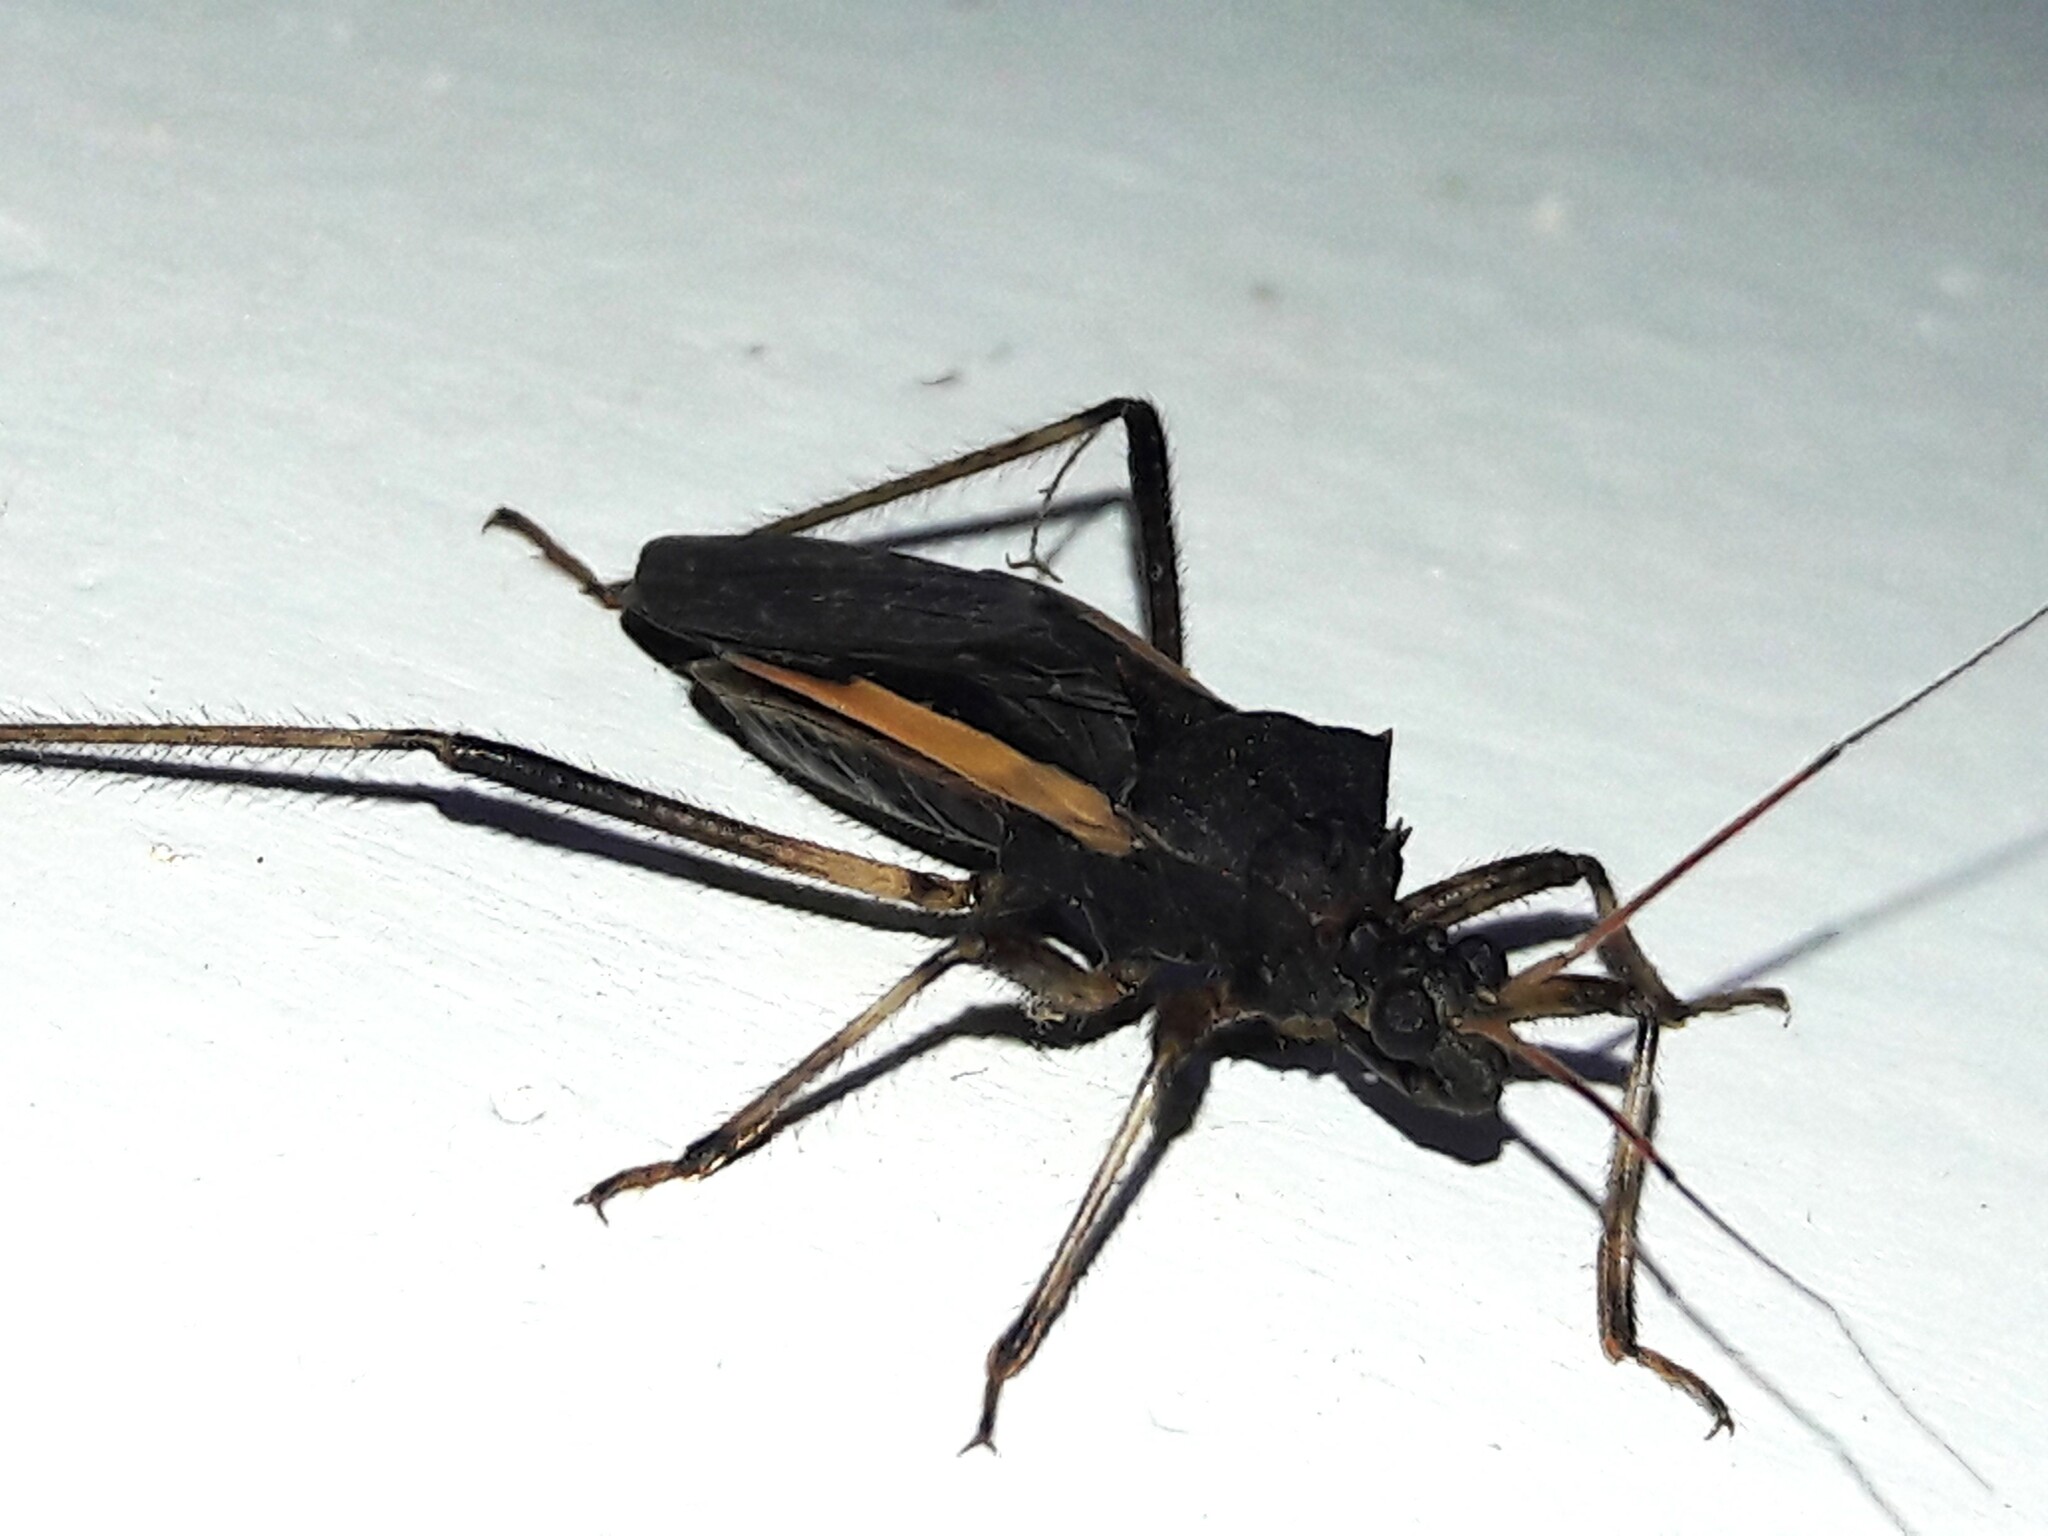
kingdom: Animalia
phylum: Arthropoda
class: Insecta
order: Hemiptera
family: Reduviidae
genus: Zelurus
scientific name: Zelurus albispinus
